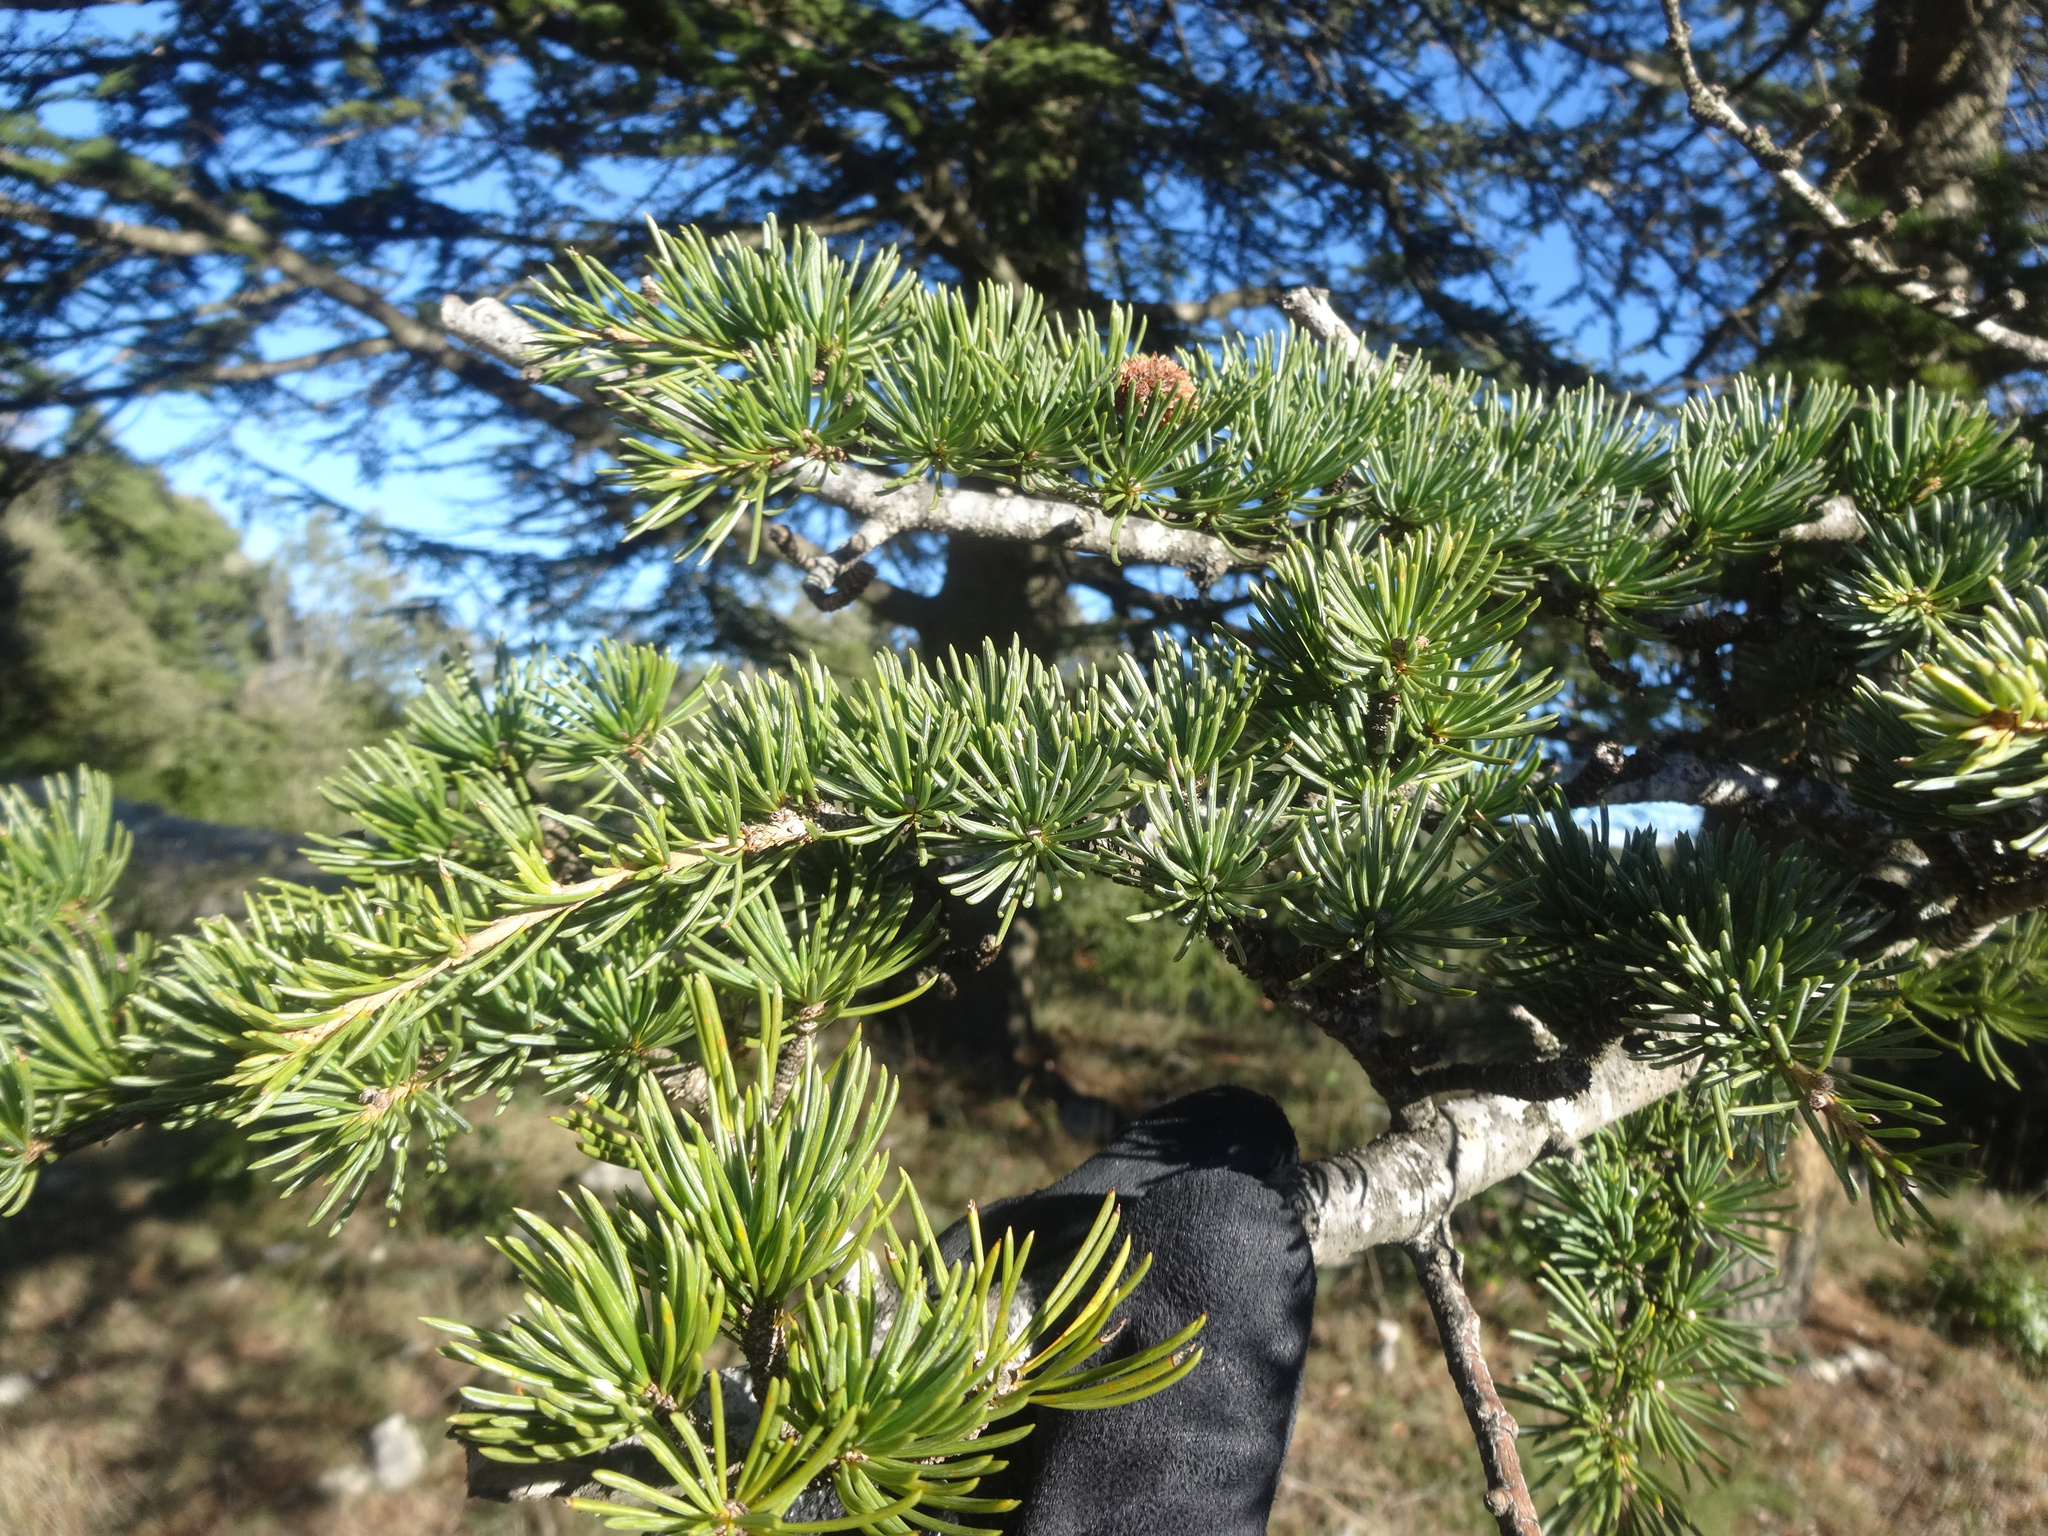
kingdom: Plantae
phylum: Tracheophyta
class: Pinopsida
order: Pinales
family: Pinaceae
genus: Cedrus
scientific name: Cedrus atlantica
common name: Atlas cedar
